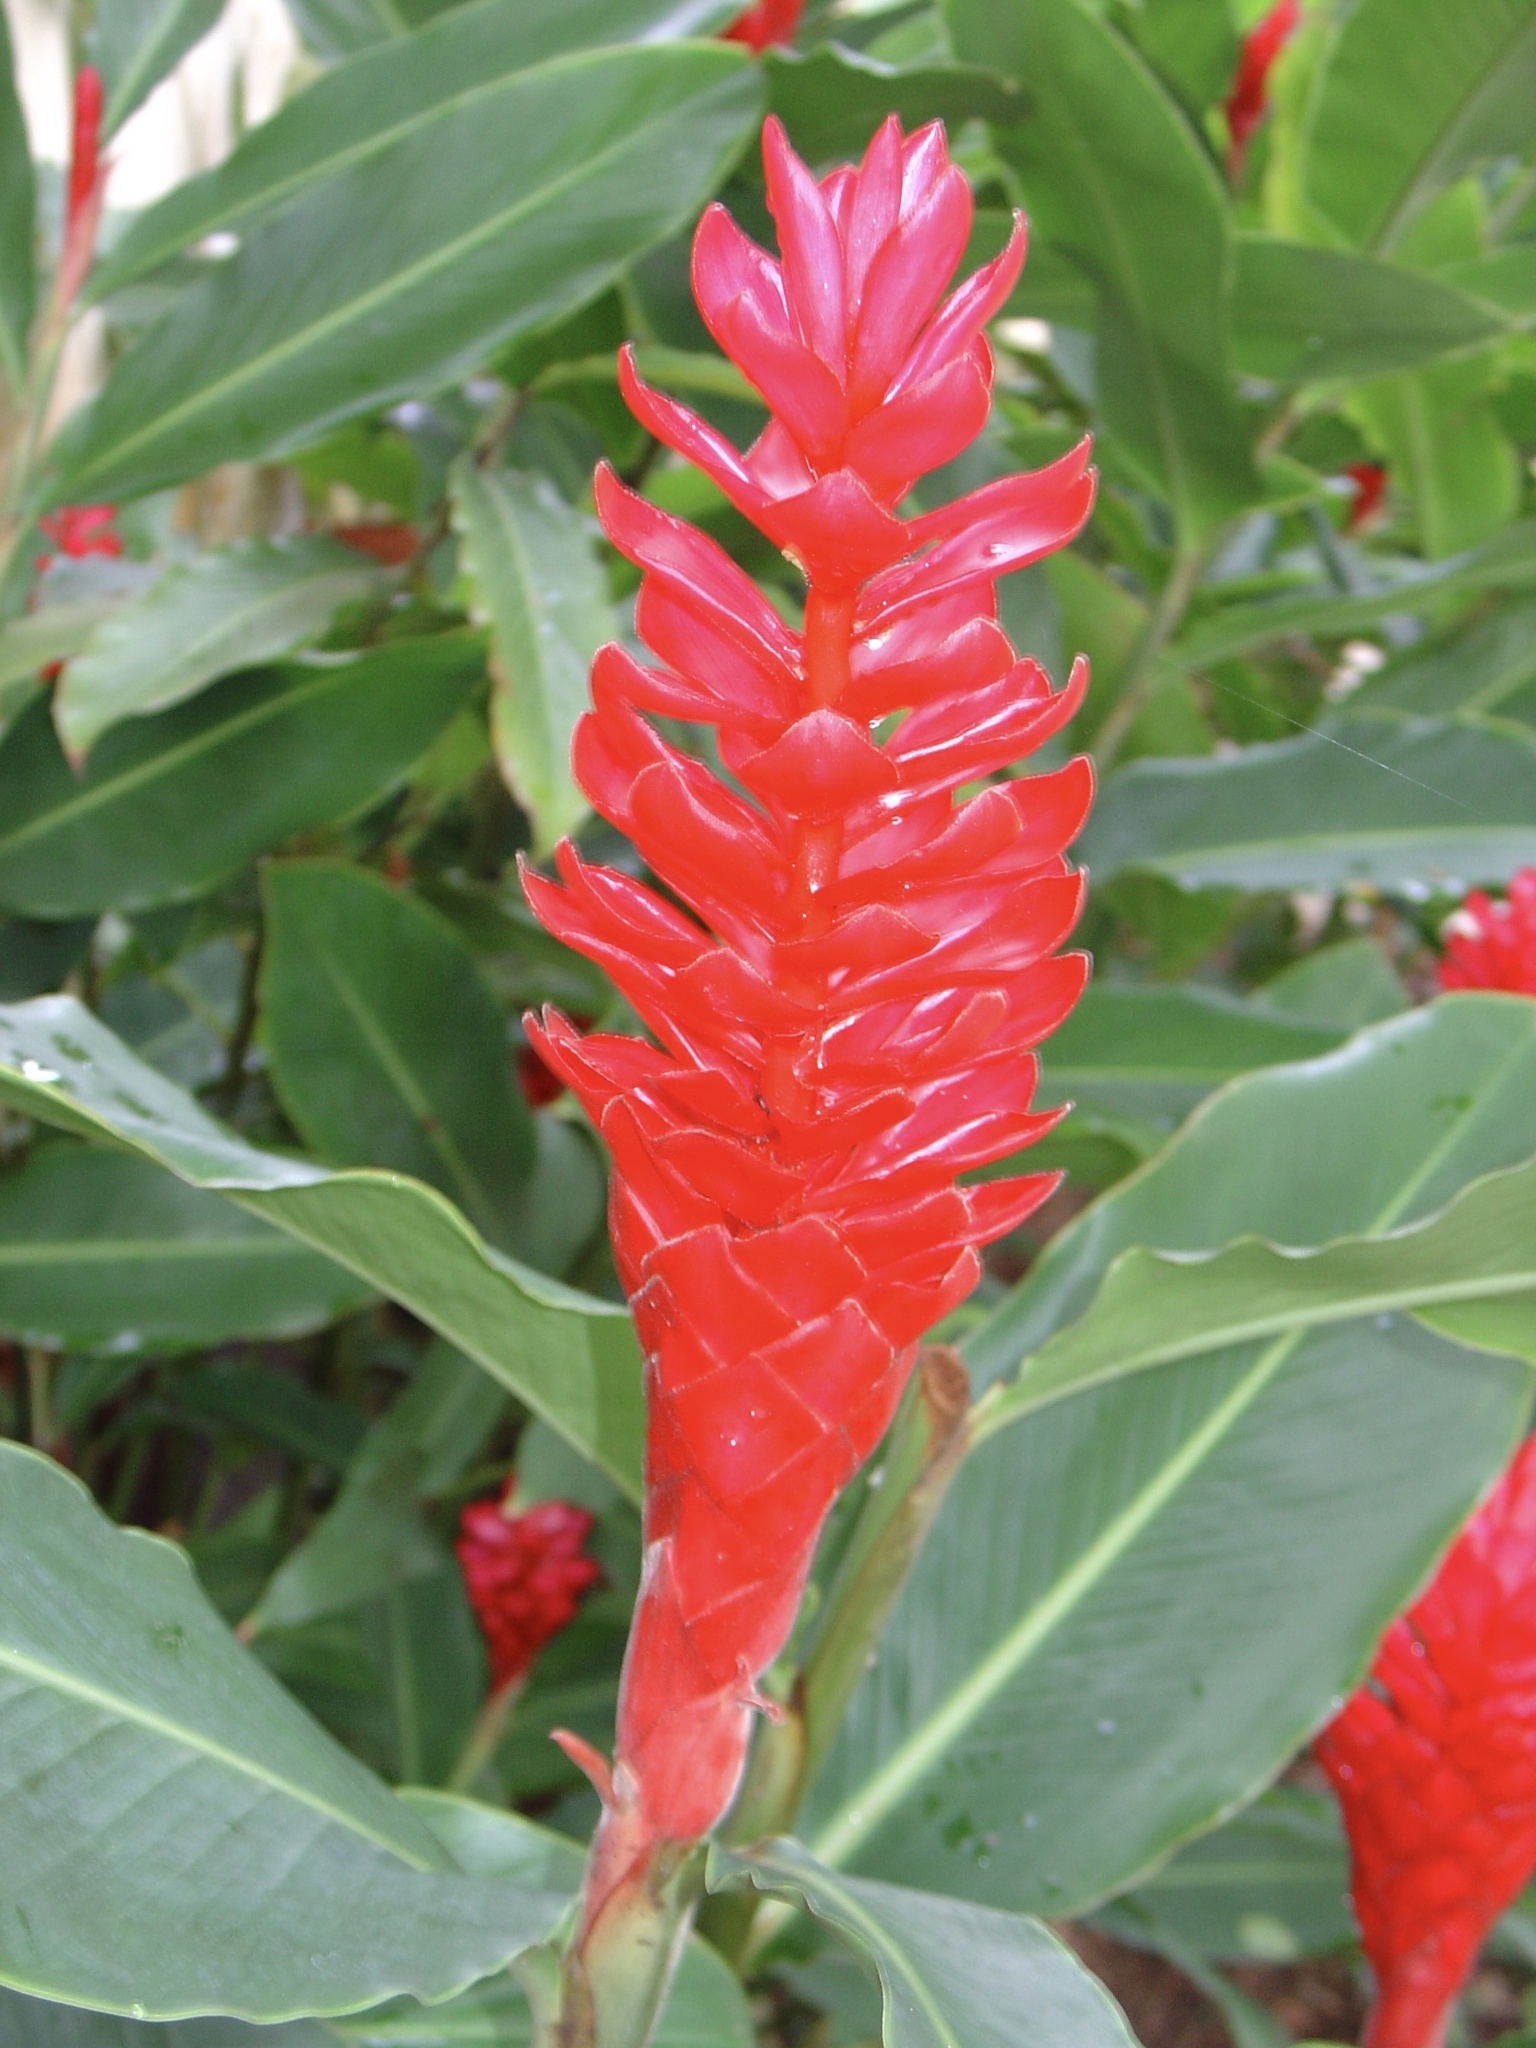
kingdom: Plantae
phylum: Tracheophyta
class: Liliopsida
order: Zingiberales
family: Zingiberaceae
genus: Alpinia
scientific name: Alpinia purpurata
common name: Red ginger
